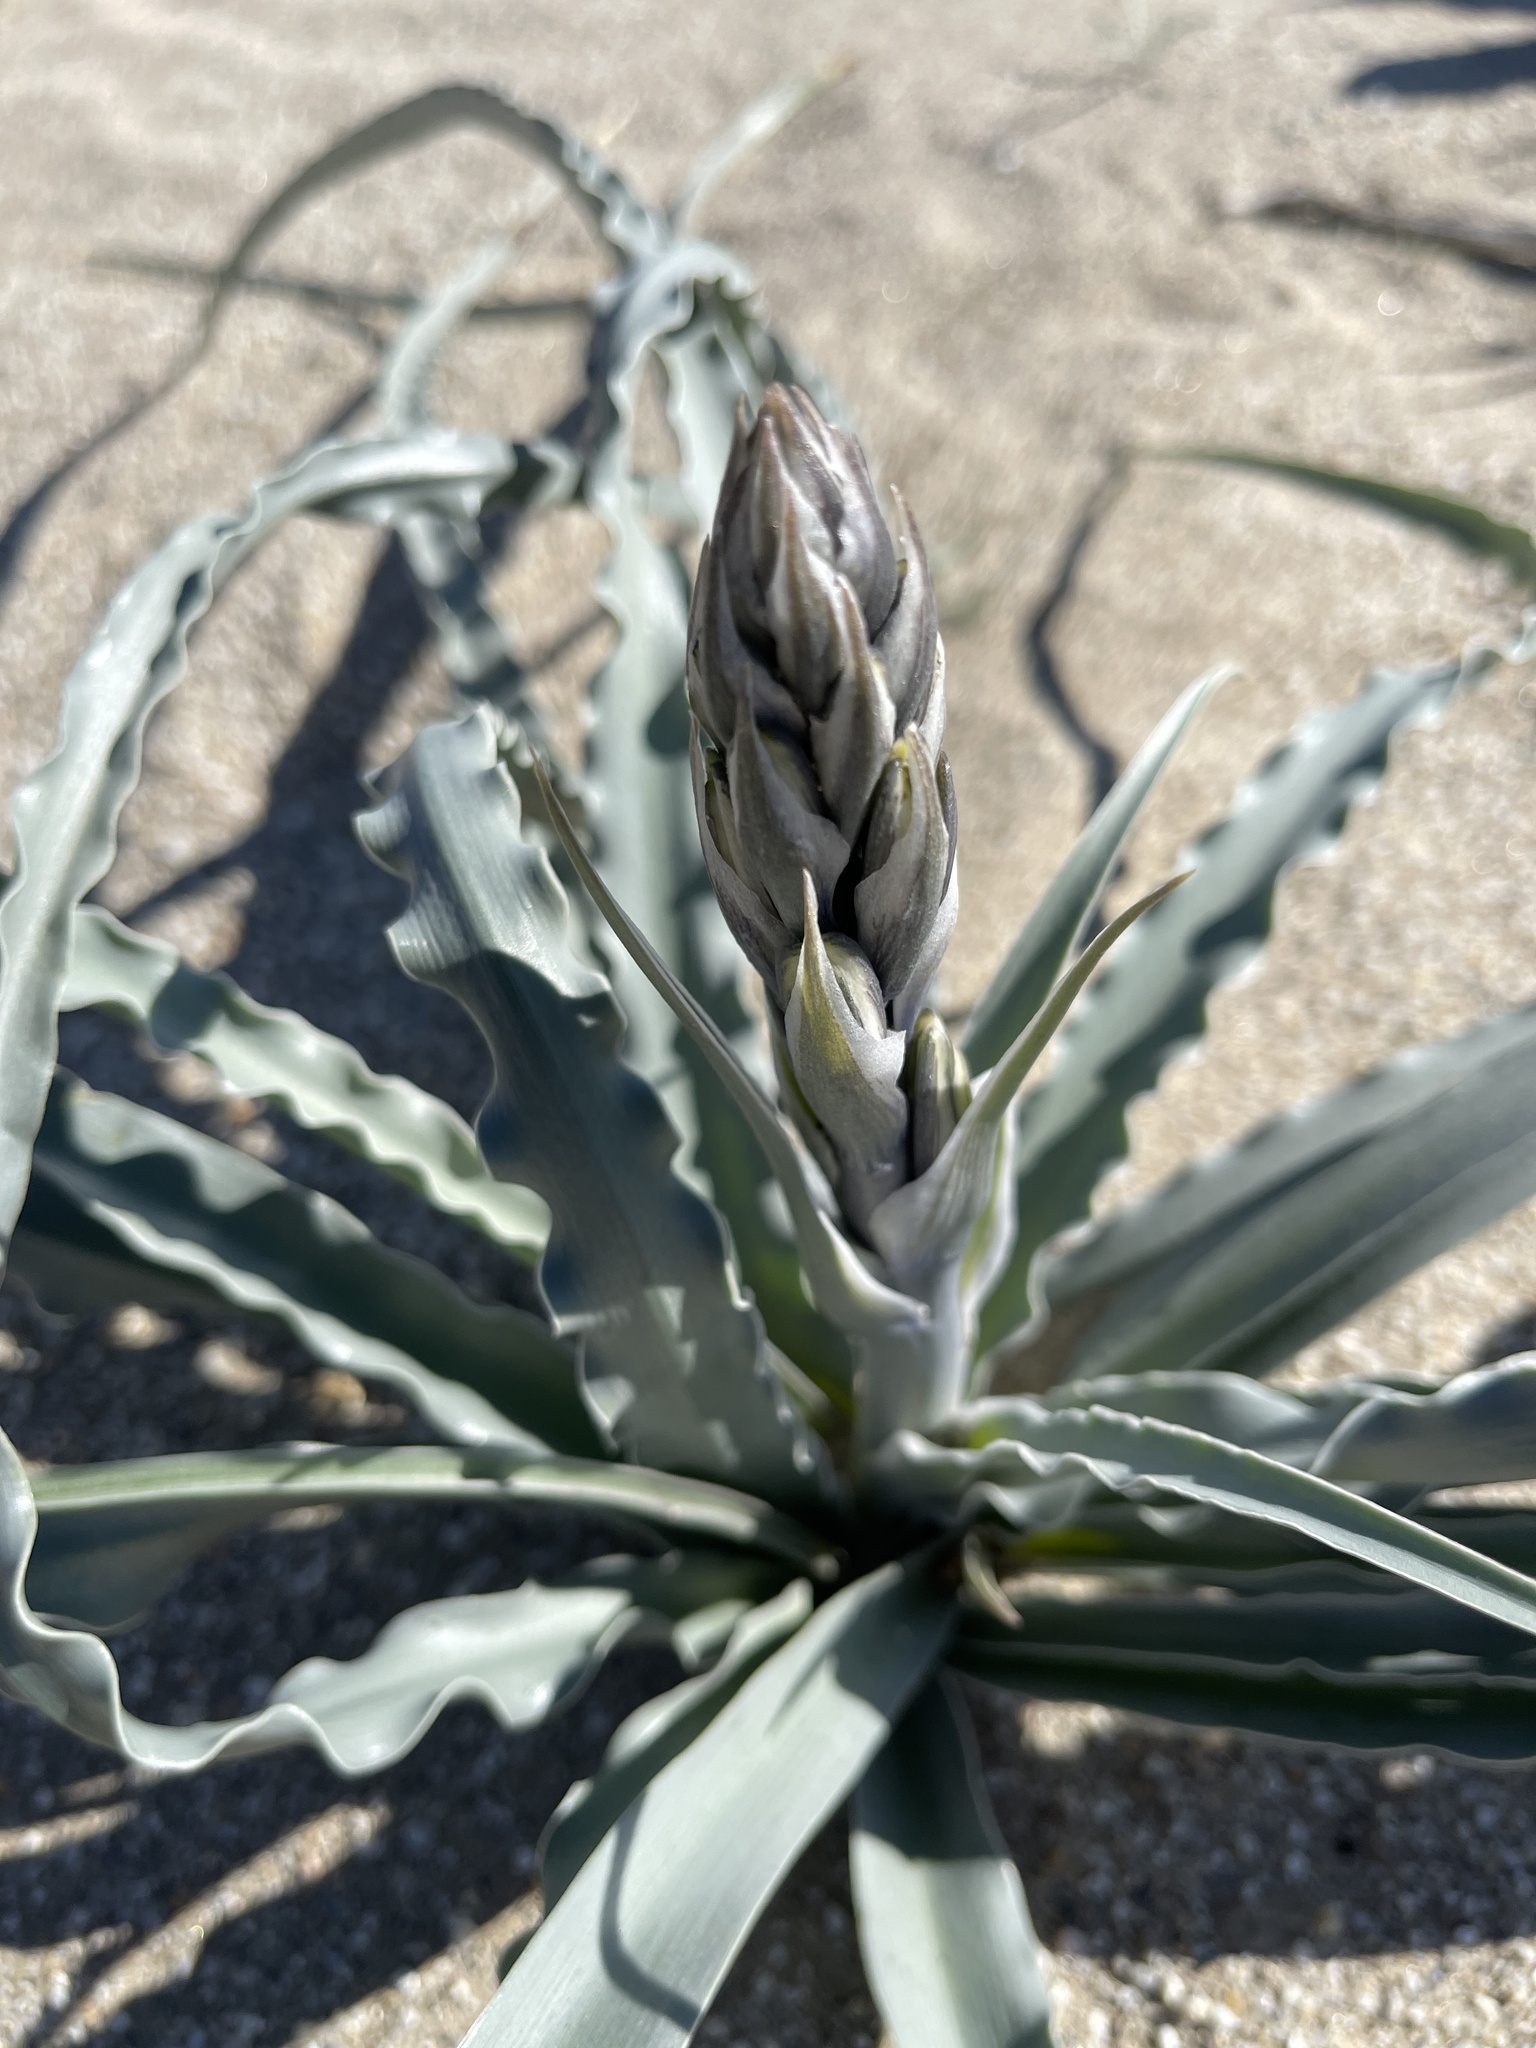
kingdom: Plantae
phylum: Tracheophyta
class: Liliopsida
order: Asparagales
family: Asparagaceae
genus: Hesperocallis
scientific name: Hesperocallis undulata
